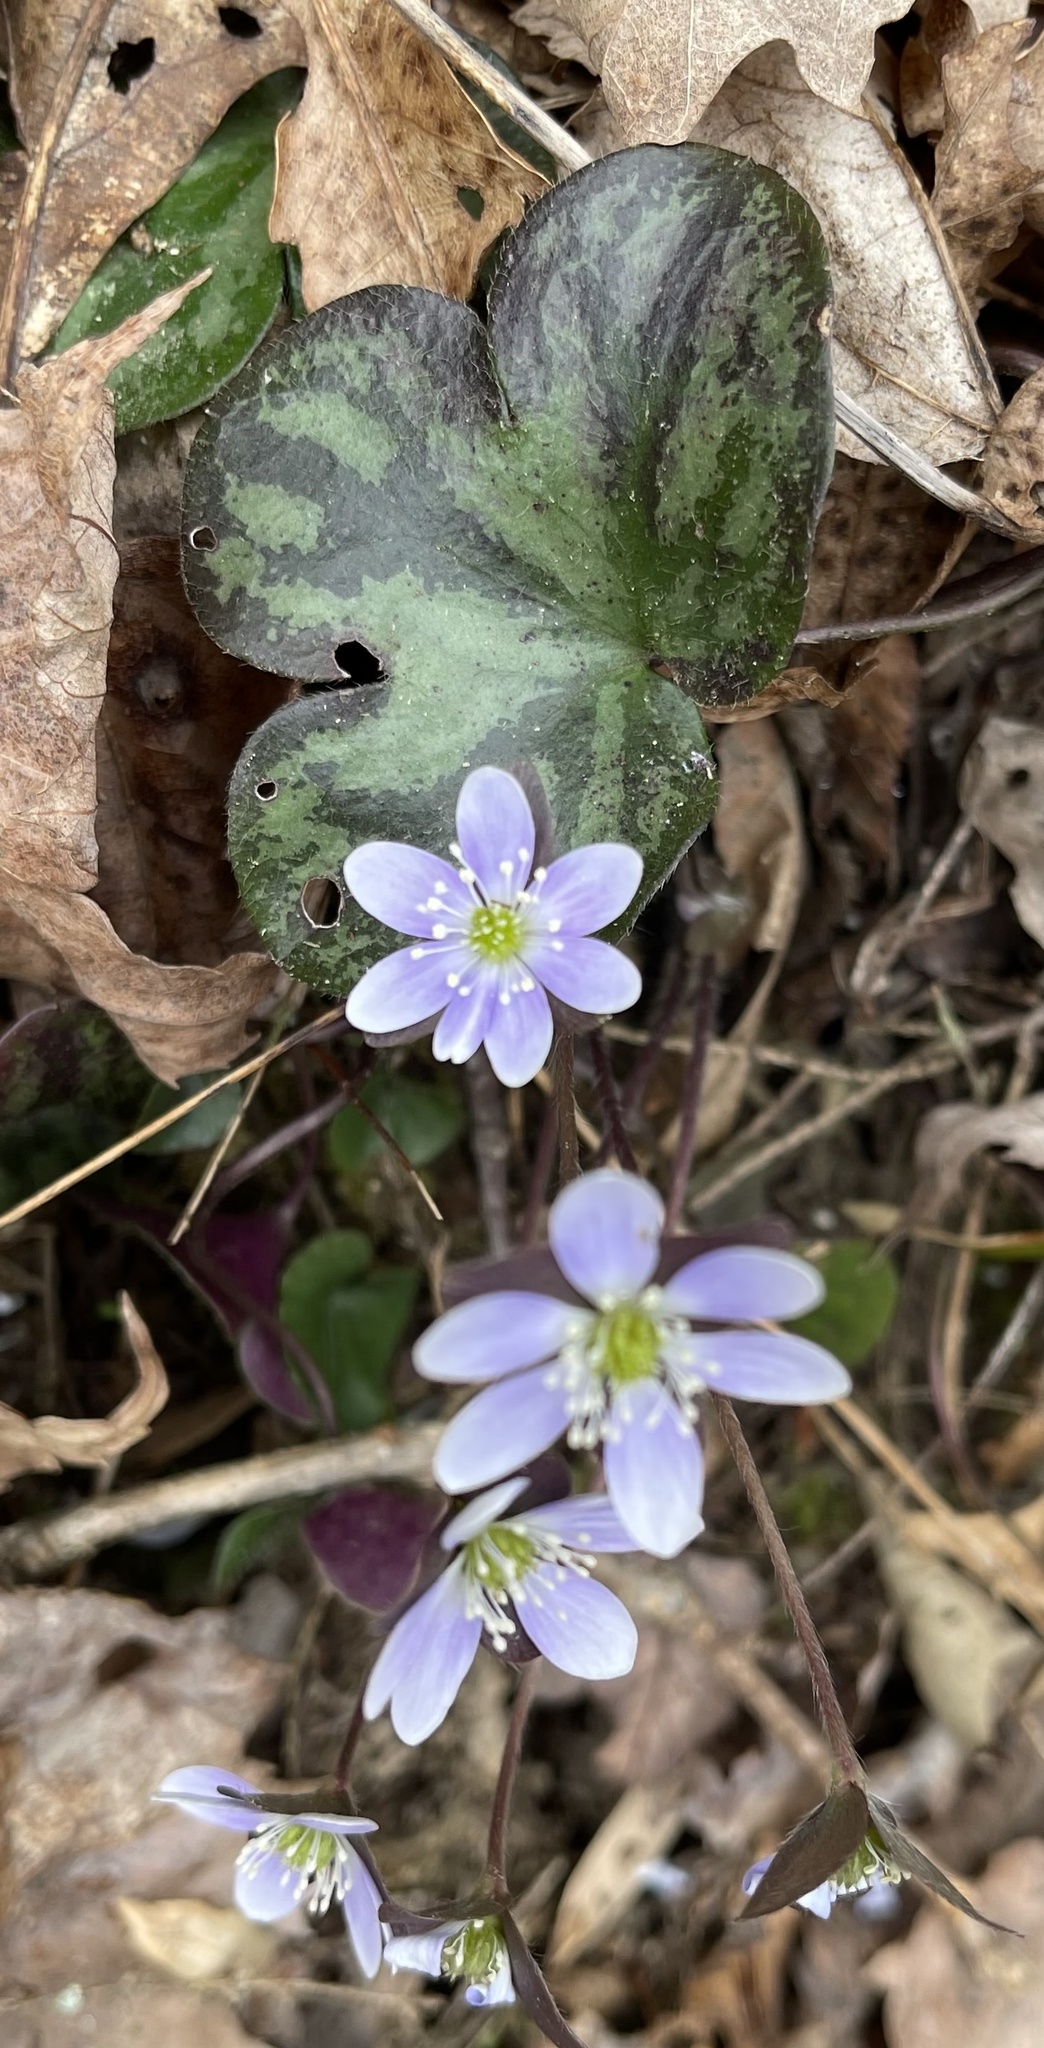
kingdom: Plantae
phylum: Tracheophyta
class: Magnoliopsida
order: Ranunculales
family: Ranunculaceae
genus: Hepatica
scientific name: Hepatica americana
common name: American hepatica
